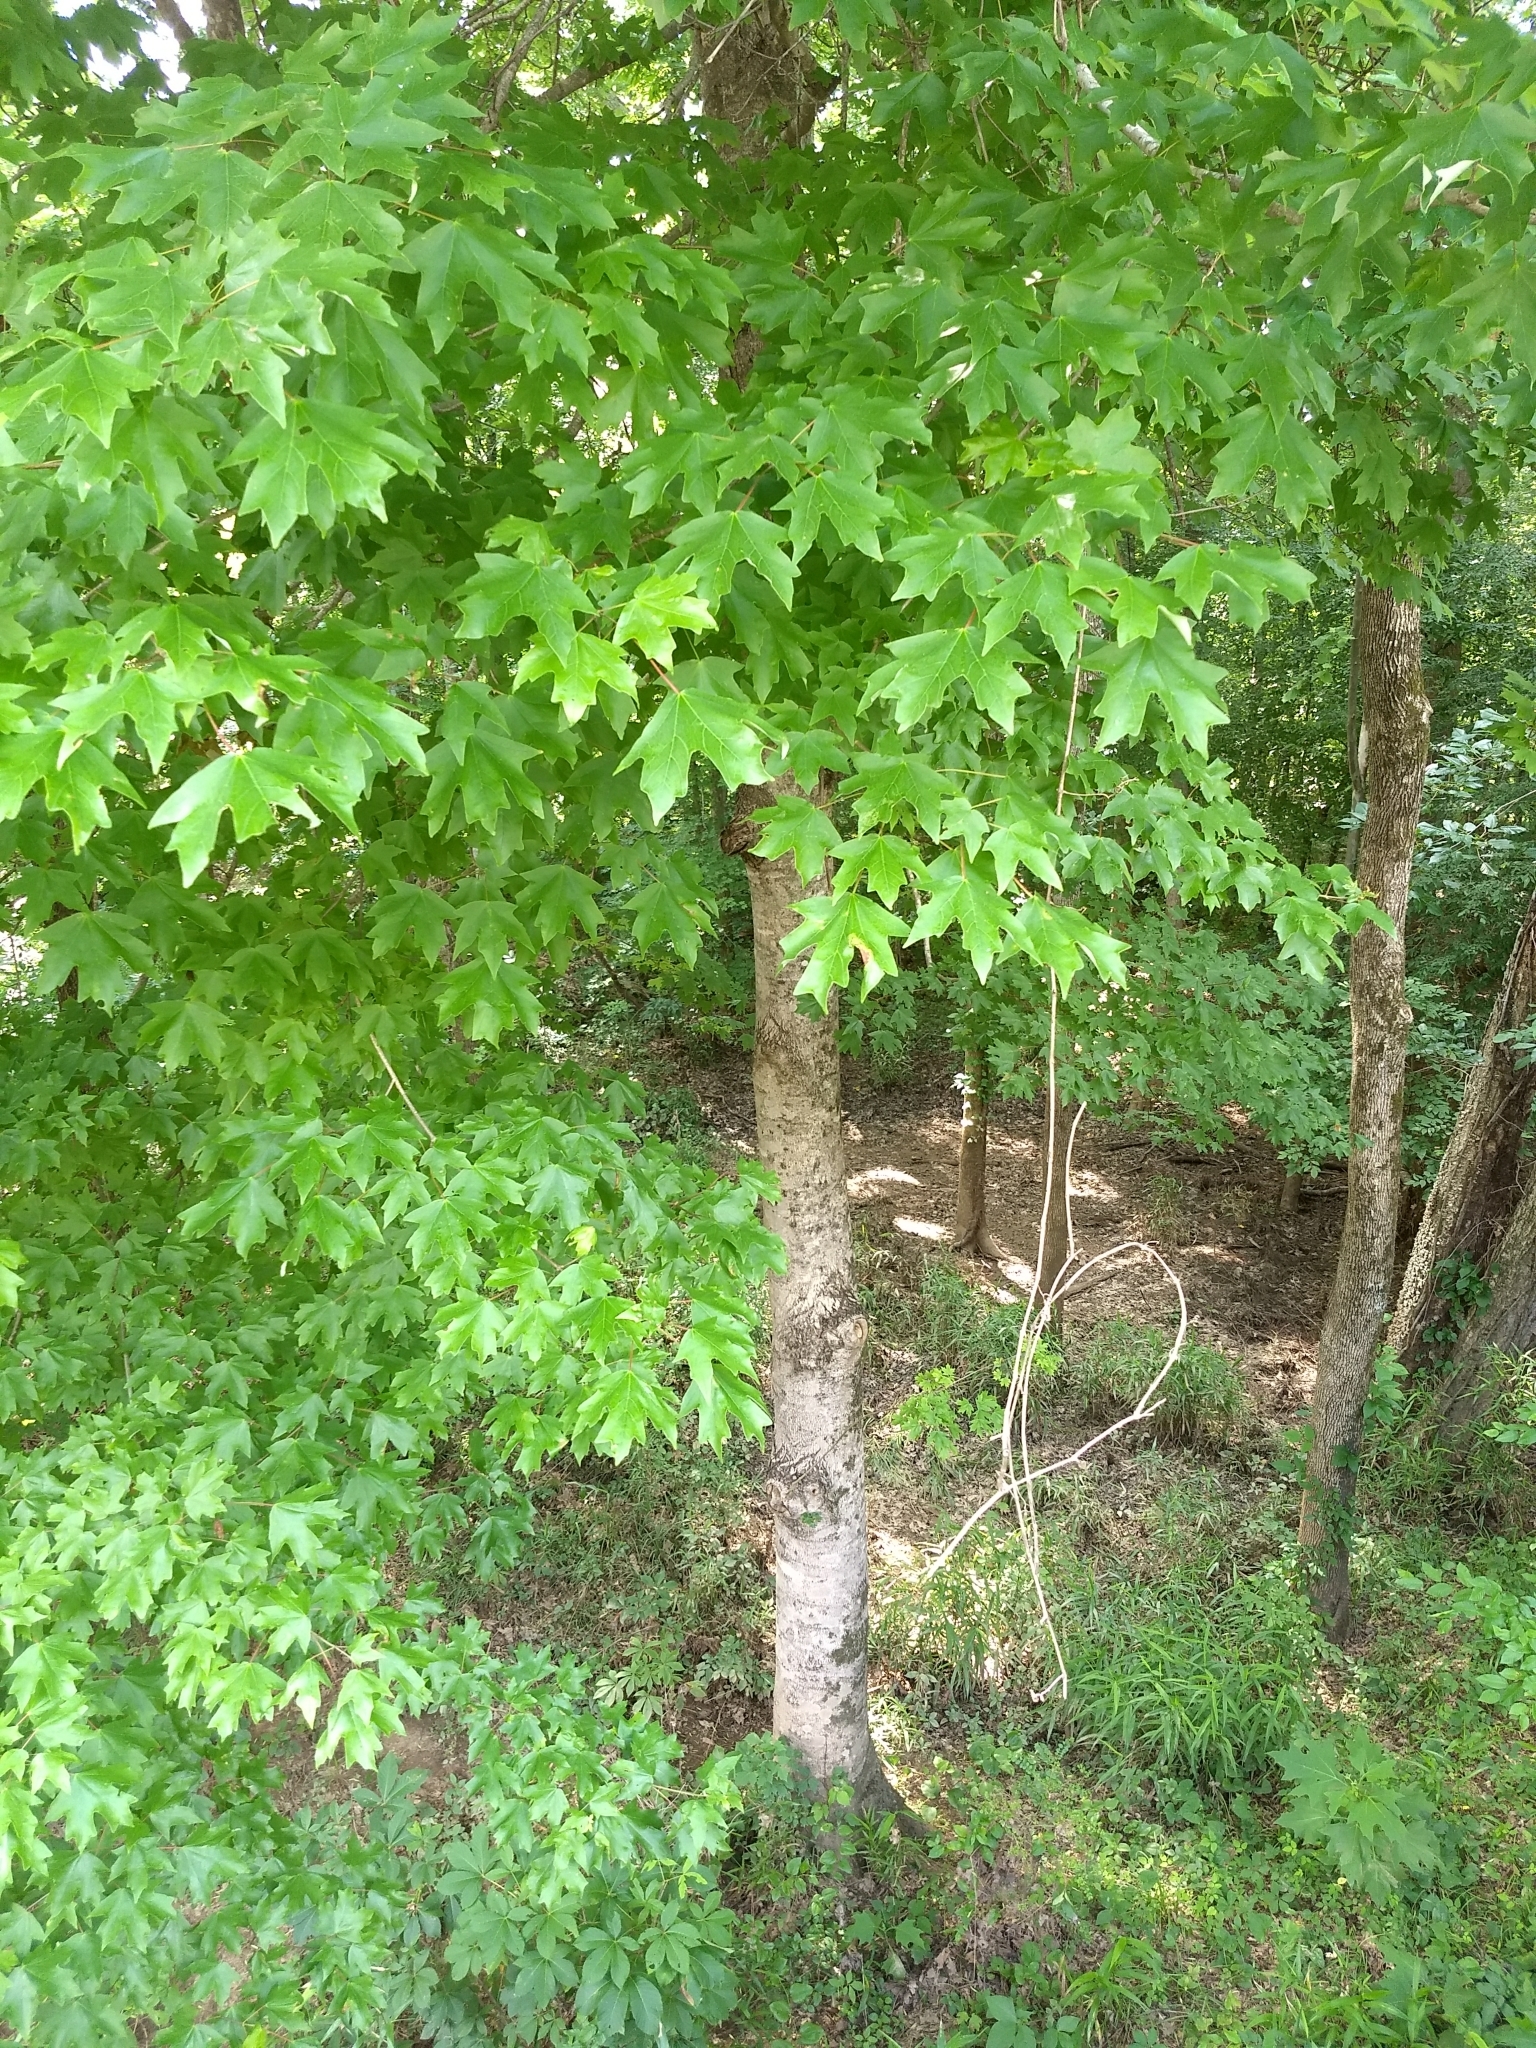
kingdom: Plantae
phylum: Tracheophyta
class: Magnoliopsida
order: Sapindales
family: Sapindaceae
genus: Acer
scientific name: Acer floridanum
